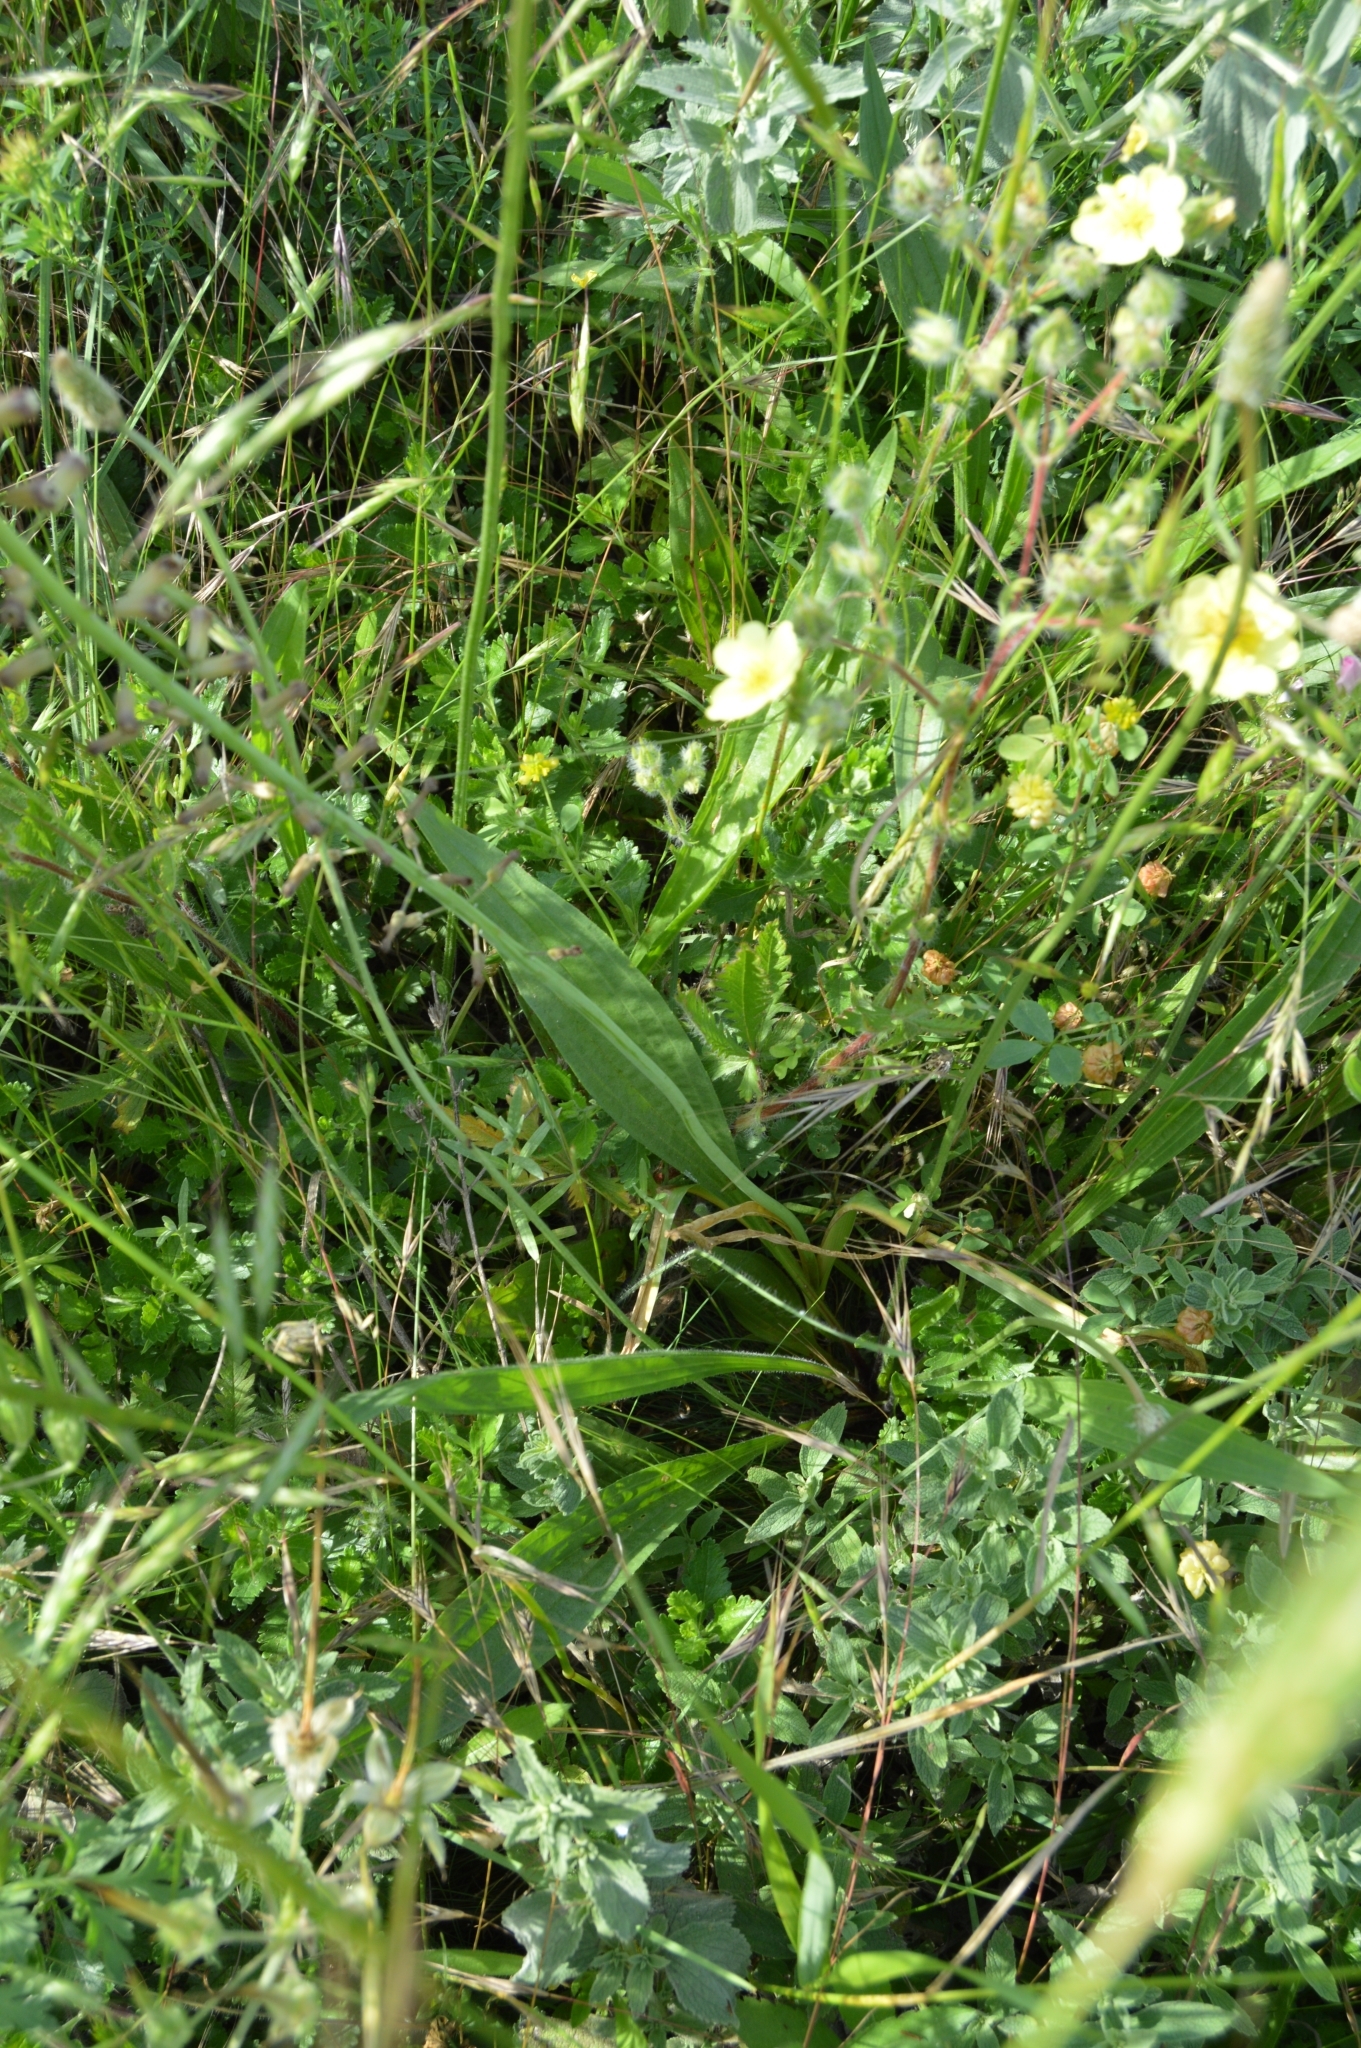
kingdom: Plantae
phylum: Tracheophyta
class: Liliopsida
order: Asparagales
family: Asparagaceae
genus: Muscari
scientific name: Muscari comosum
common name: Tassel hyacinth
